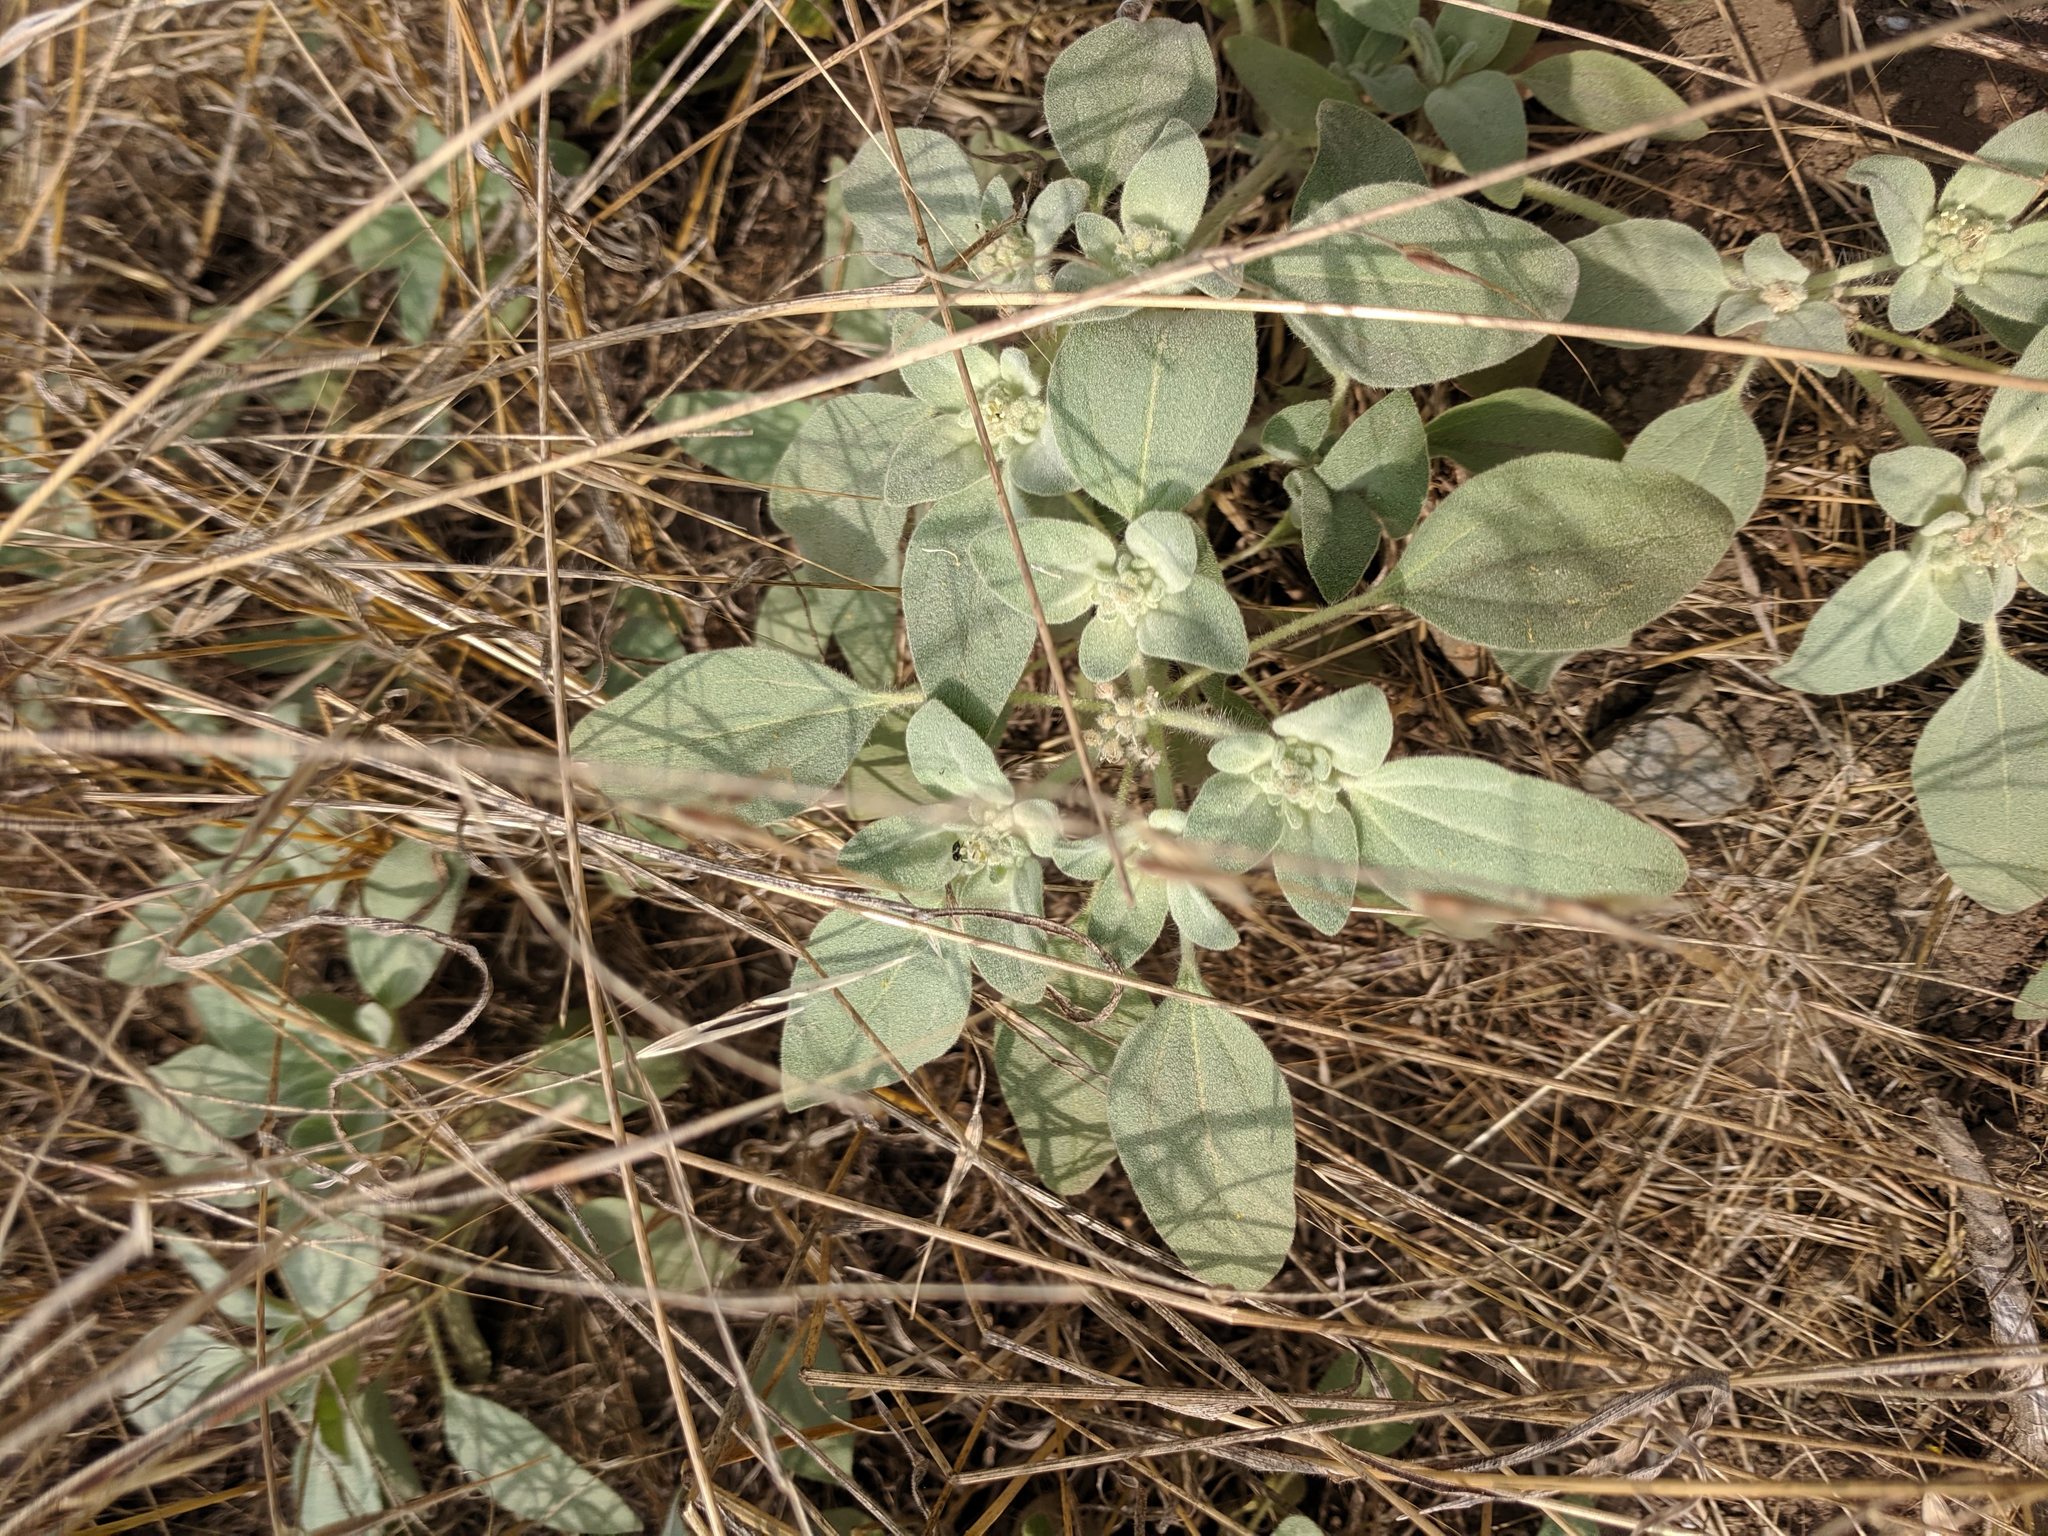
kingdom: Plantae
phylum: Tracheophyta
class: Magnoliopsida
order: Malpighiales
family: Euphorbiaceae
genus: Croton
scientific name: Croton setiger
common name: Dove weed
